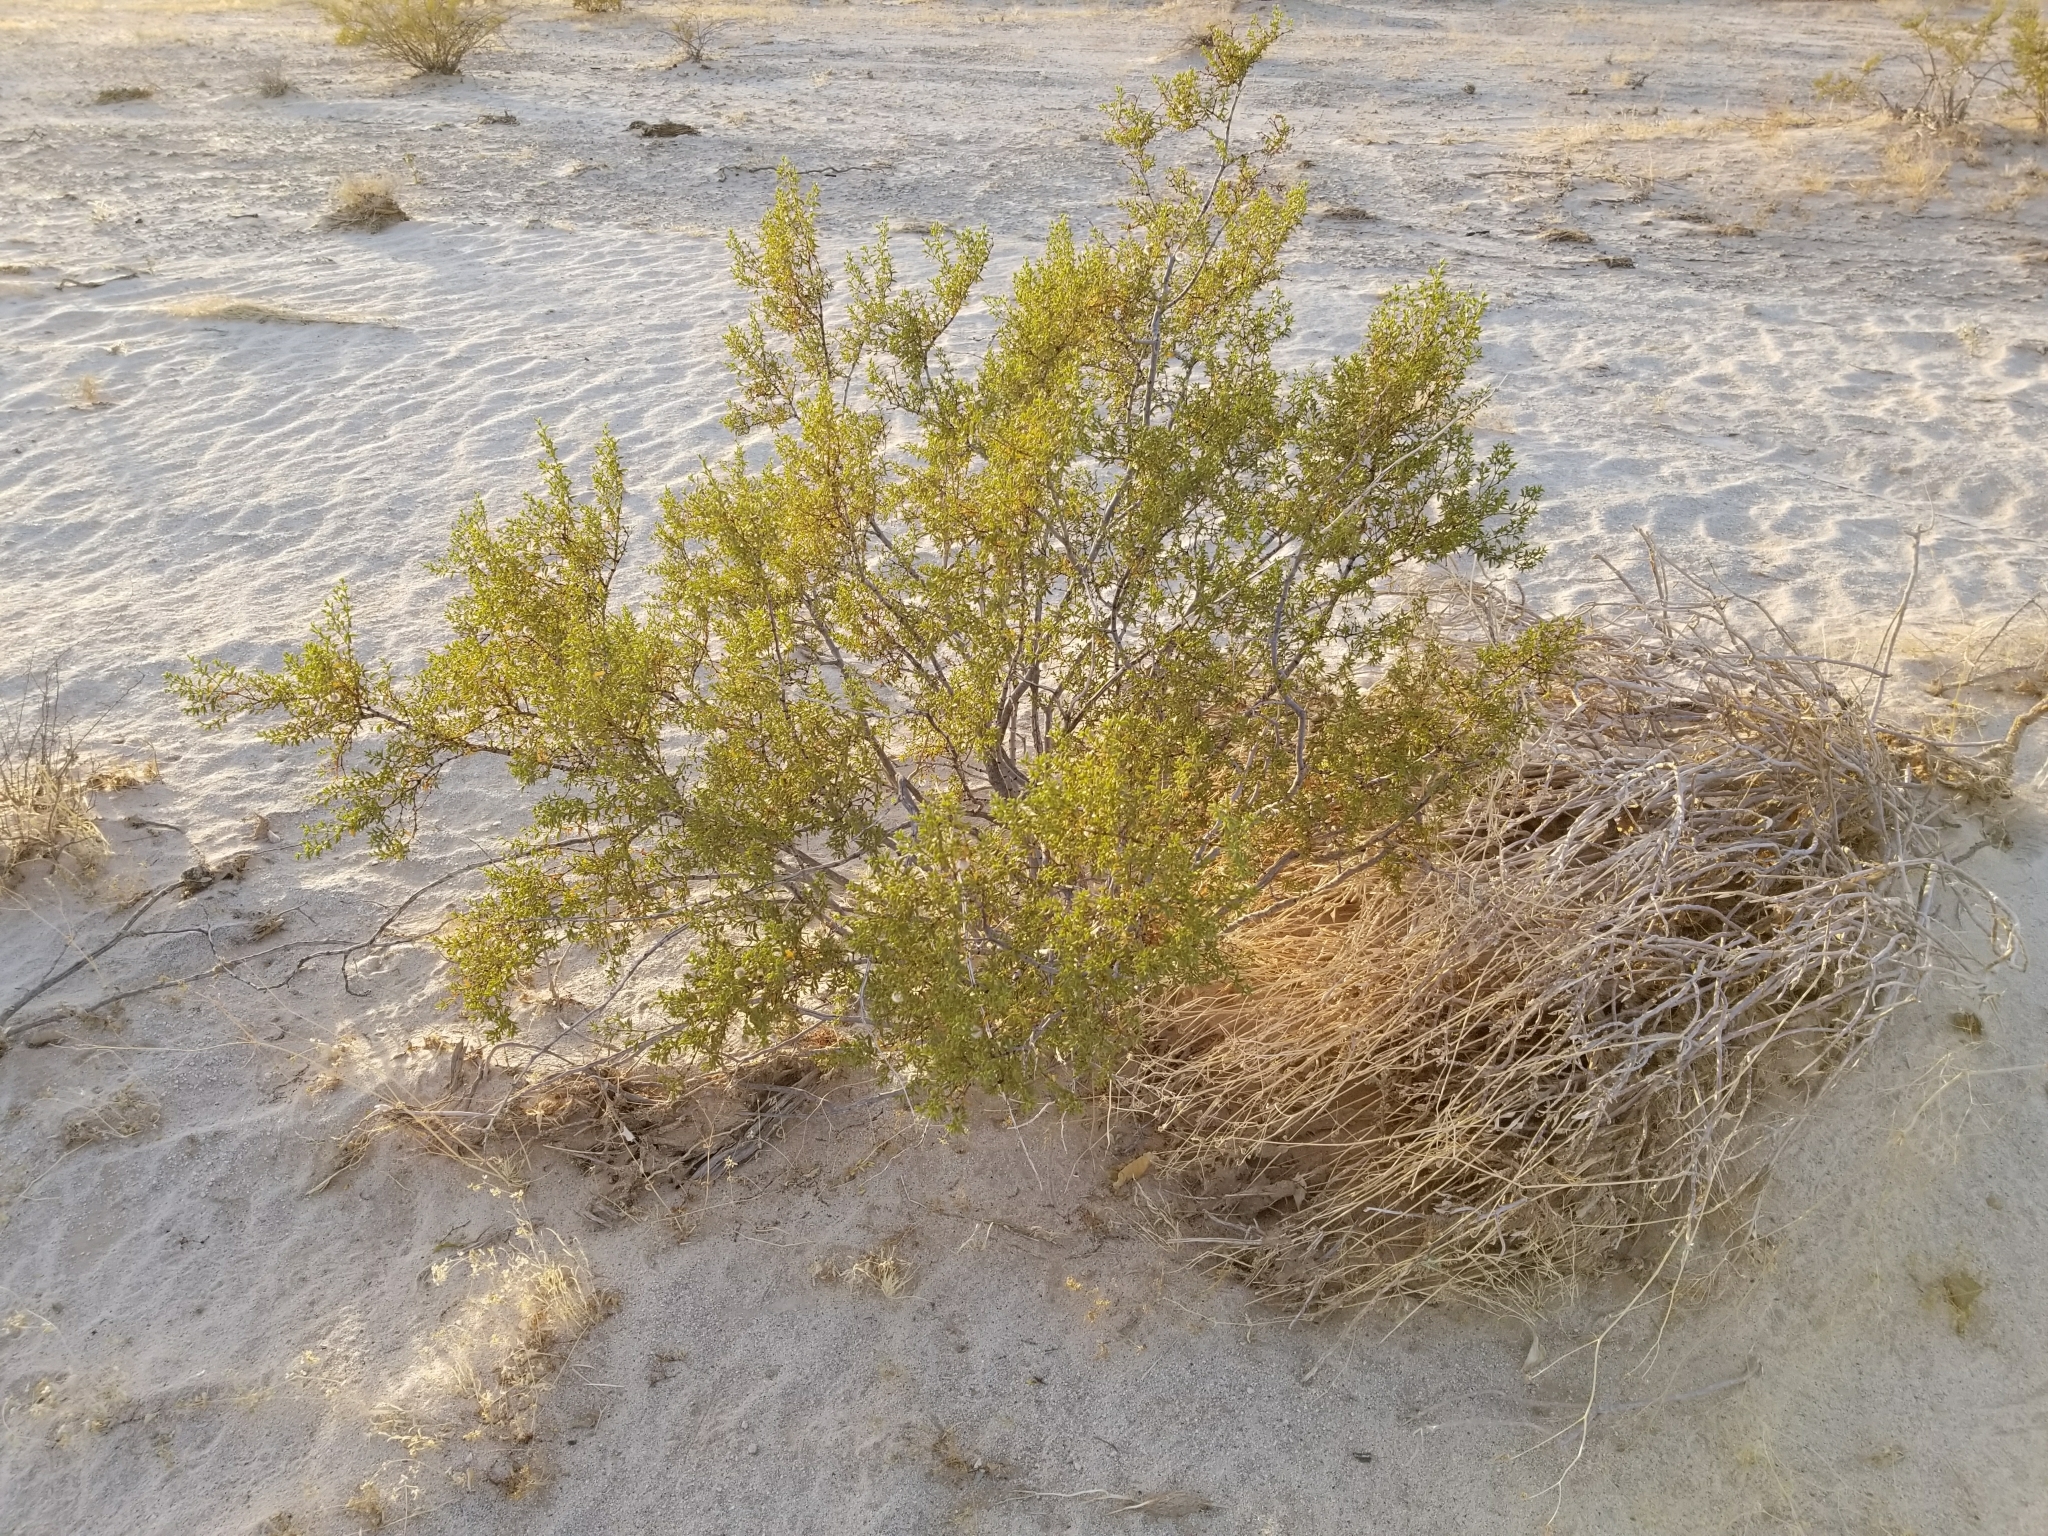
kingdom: Plantae
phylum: Tracheophyta
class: Magnoliopsida
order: Zygophyllales
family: Zygophyllaceae
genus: Larrea
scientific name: Larrea tridentata
